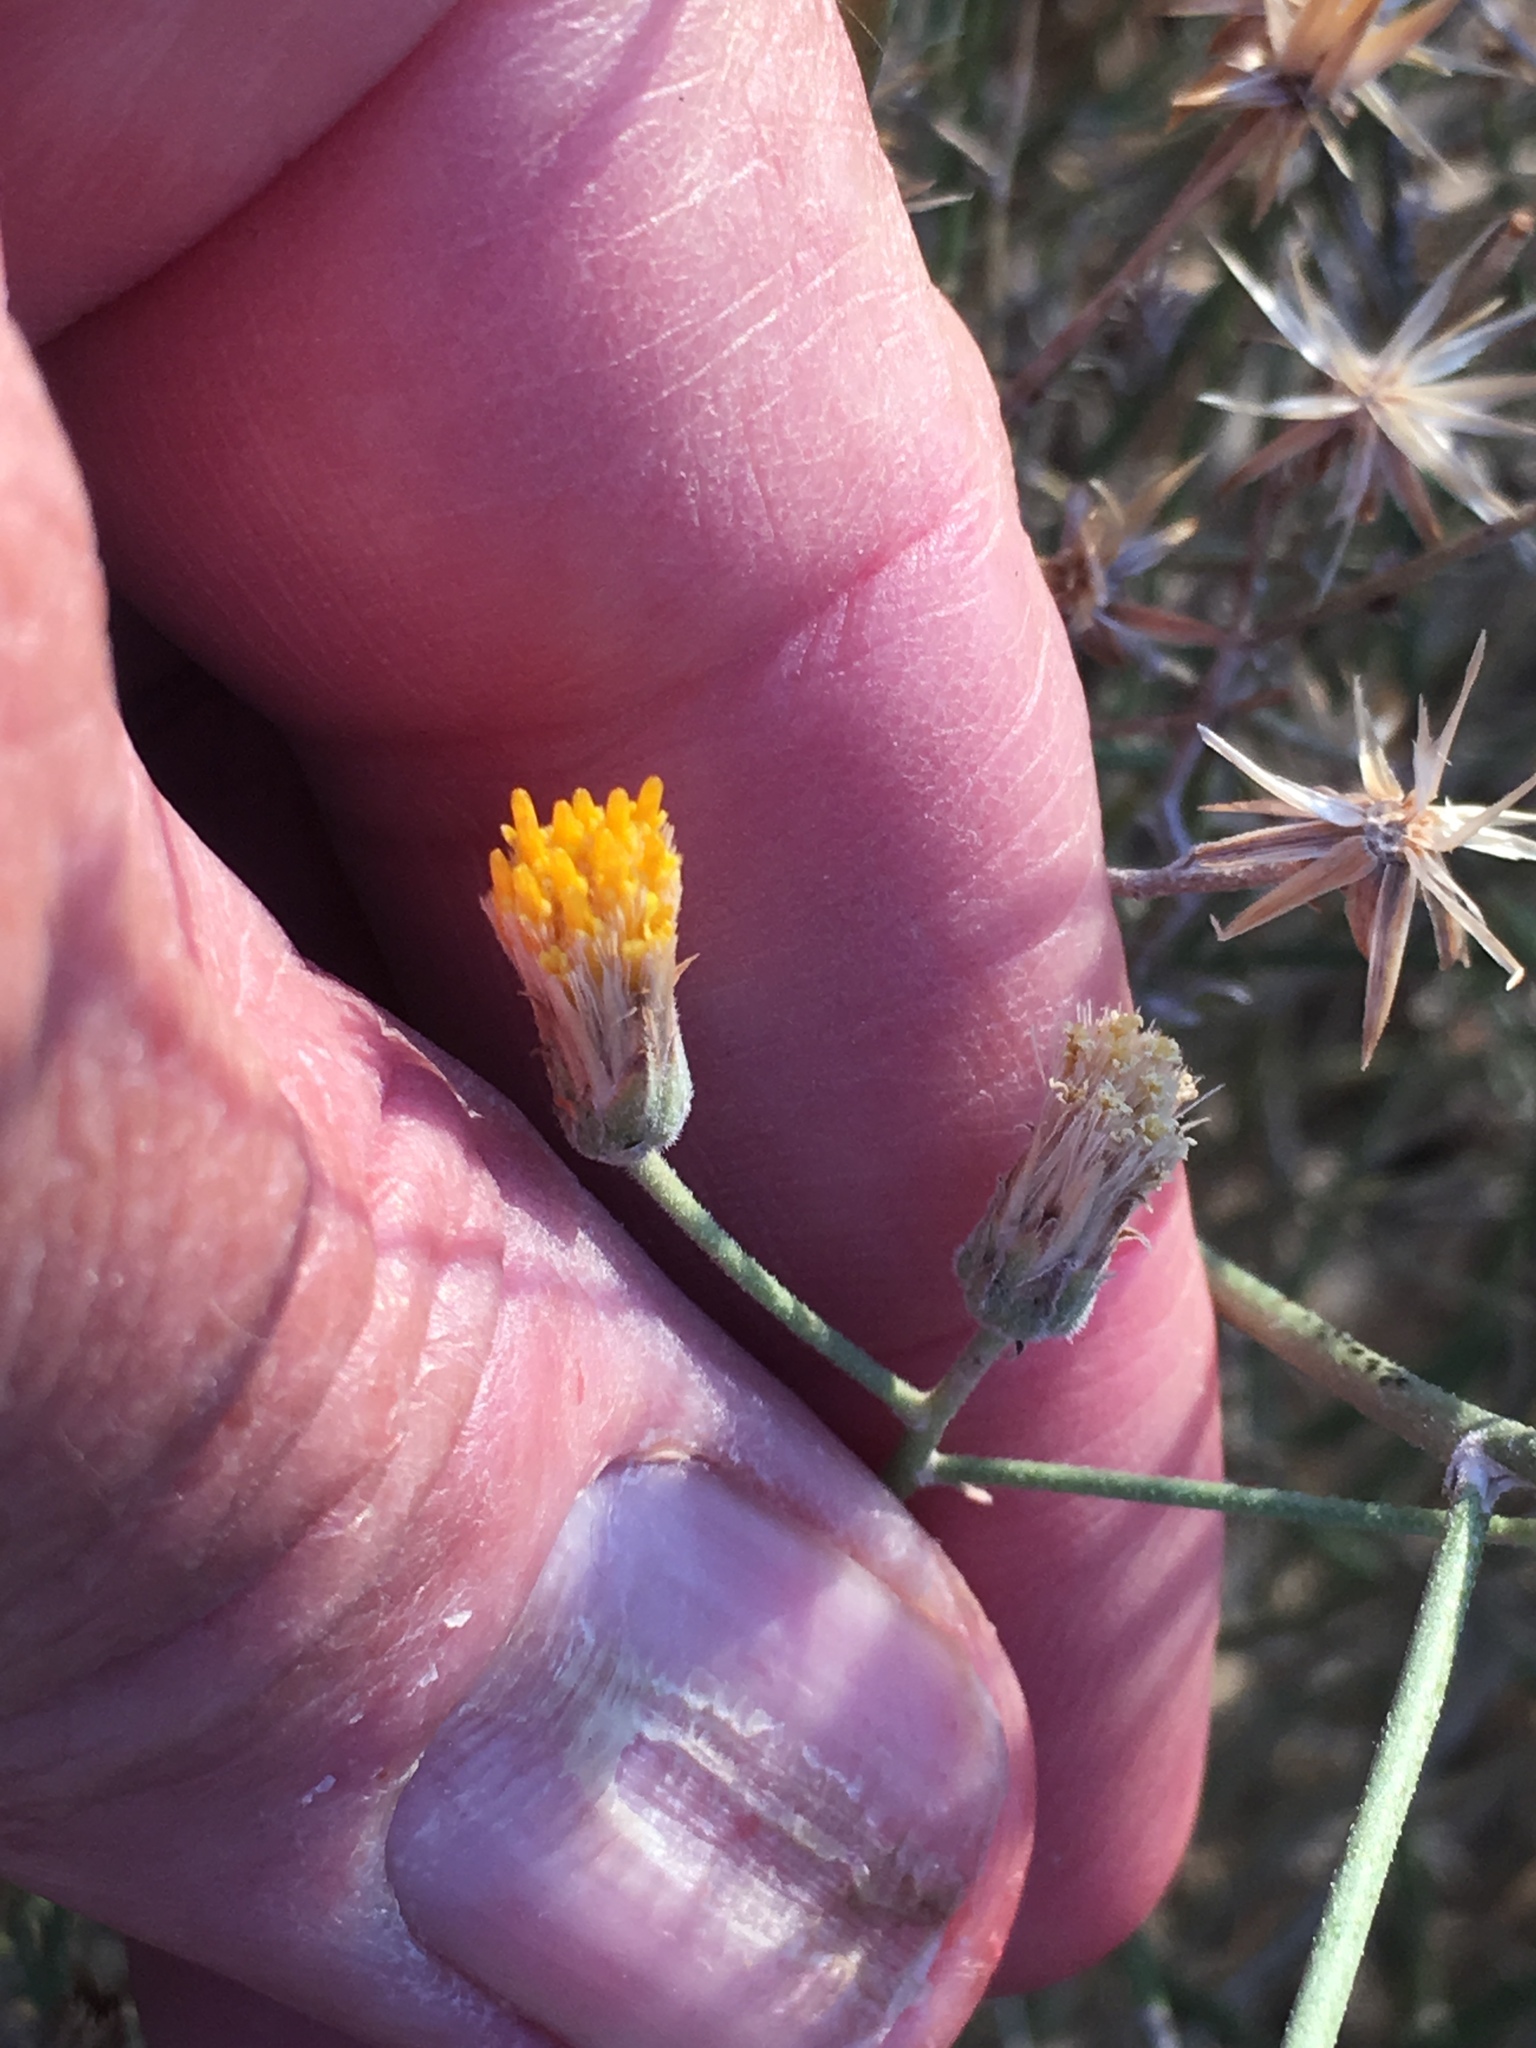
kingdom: Plantae
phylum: Tracheophyta
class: Magnoliopsida
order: Asterales
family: Asteraceae
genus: Bebbia
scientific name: Bebbia juncea
